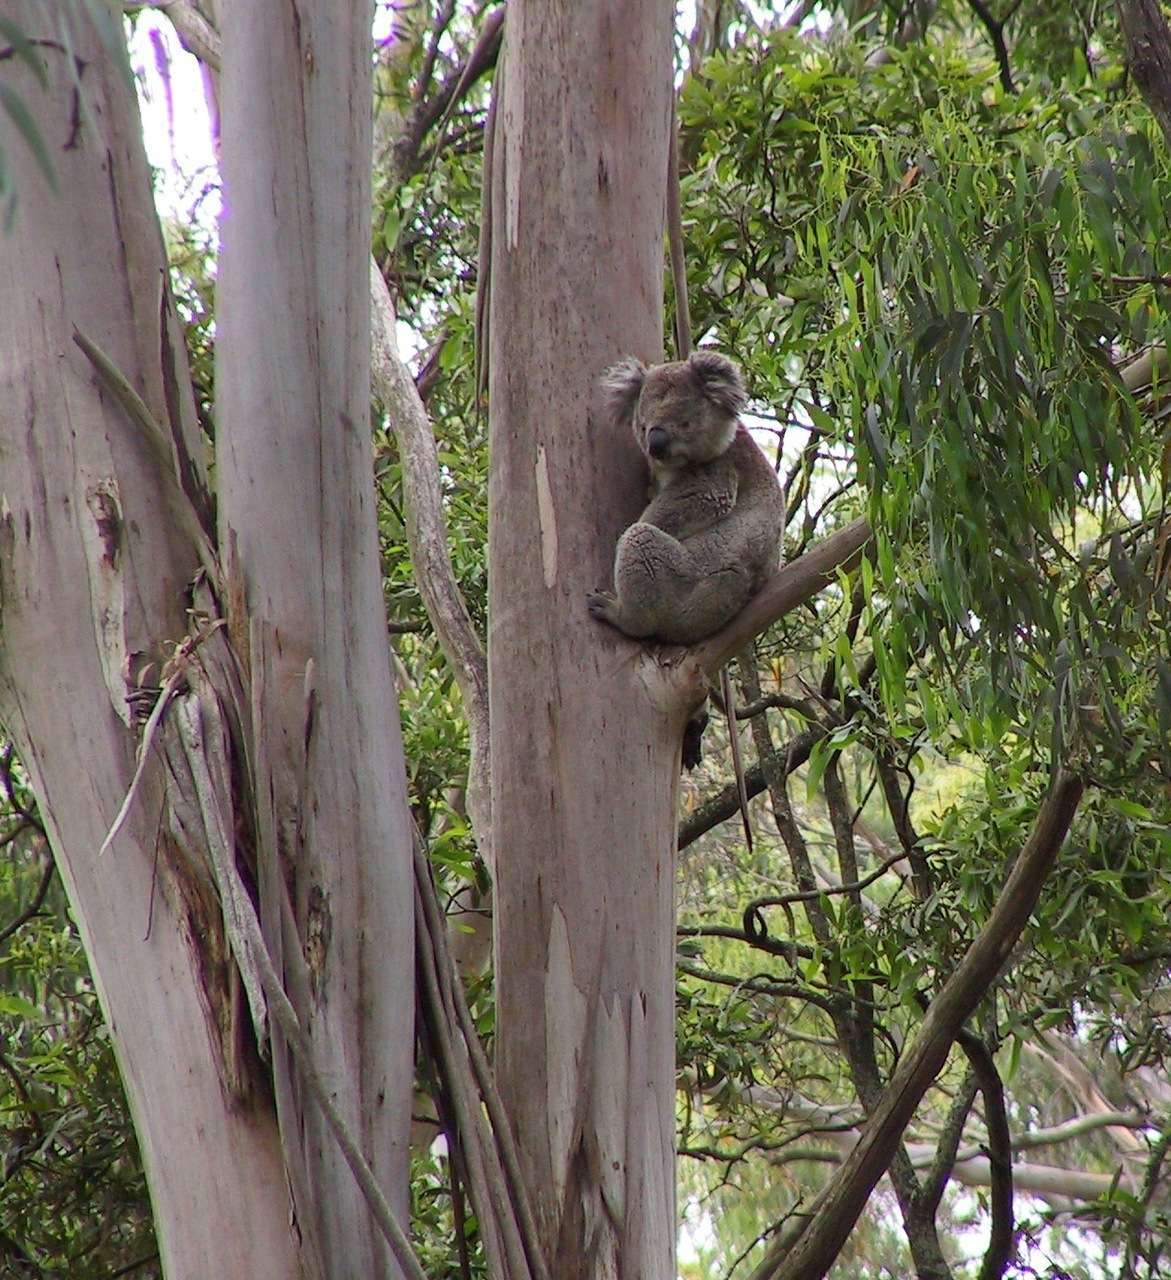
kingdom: Animalia
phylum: Chordata
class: Mammalia
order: Diprotodontia
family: Phascolarctidae
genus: Phascolarctos
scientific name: Phascolarctos cinereus
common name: Koala
